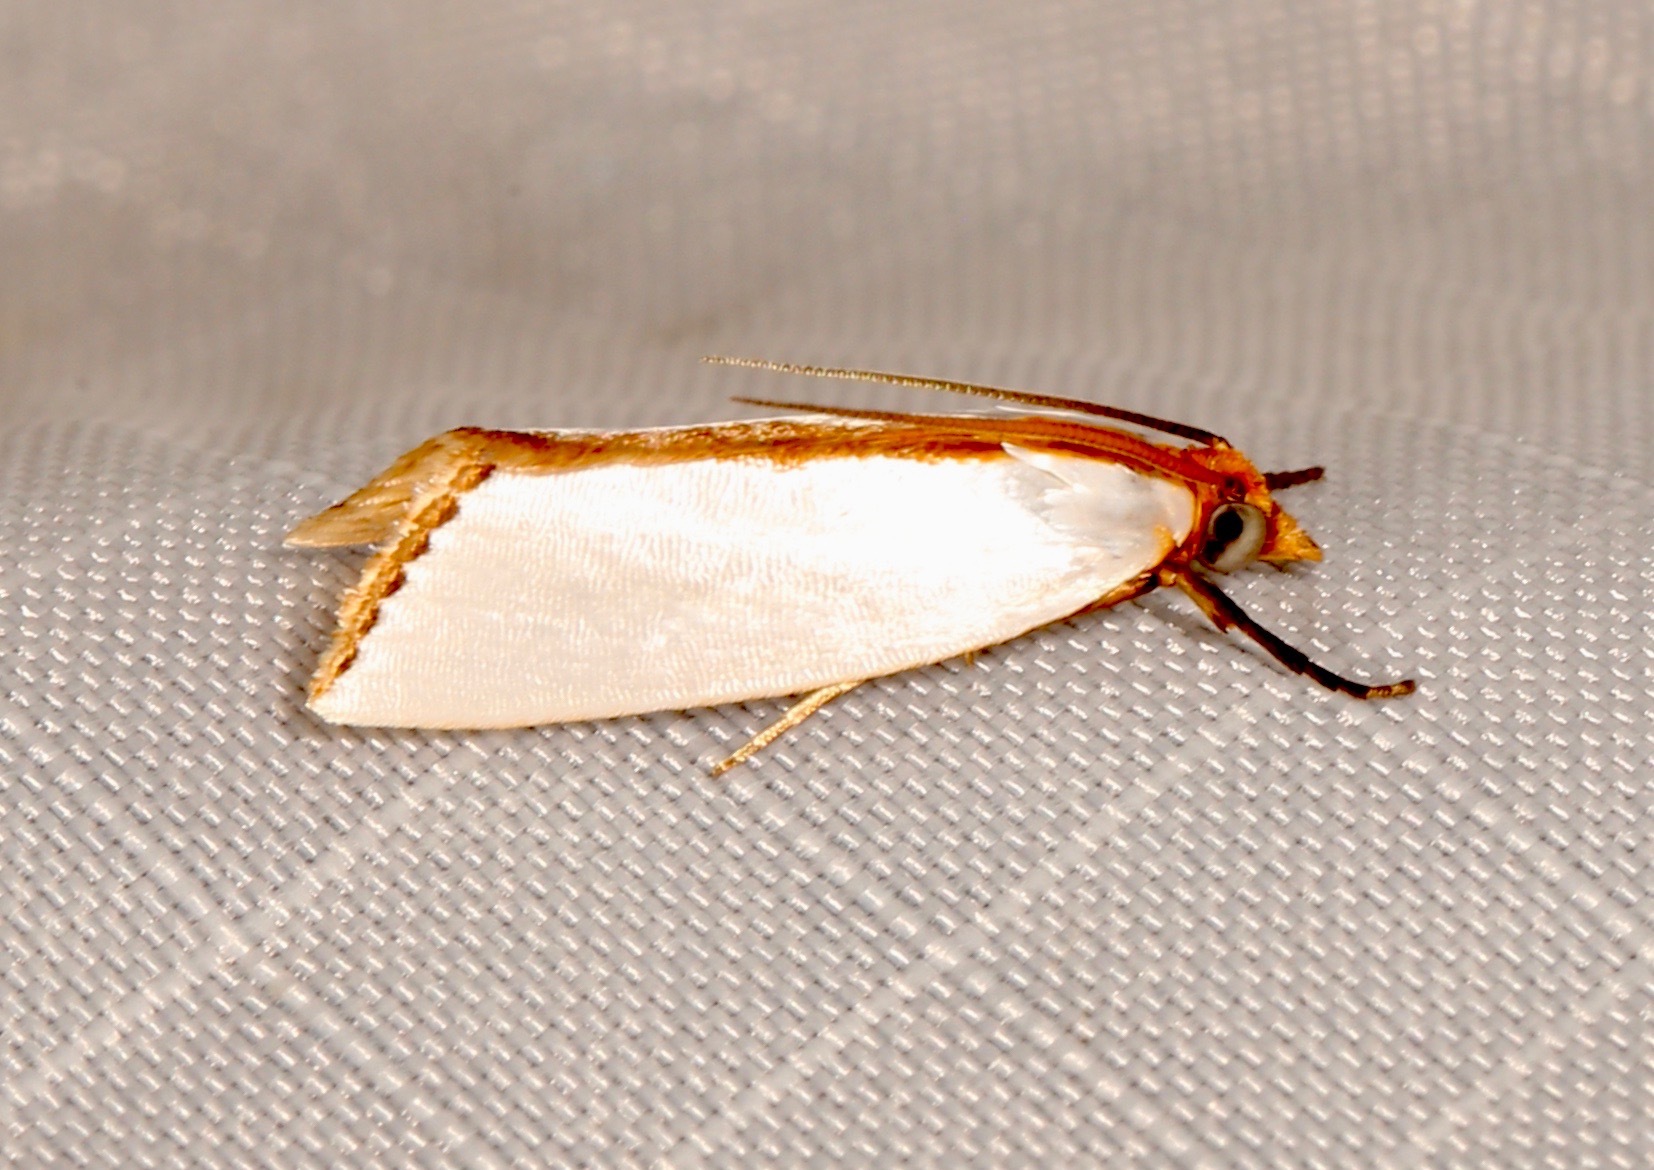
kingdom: Animalia
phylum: Arthropoda
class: Insecta
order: Lepidoptera
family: Crambidae
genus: Argyria
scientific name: Argyria
